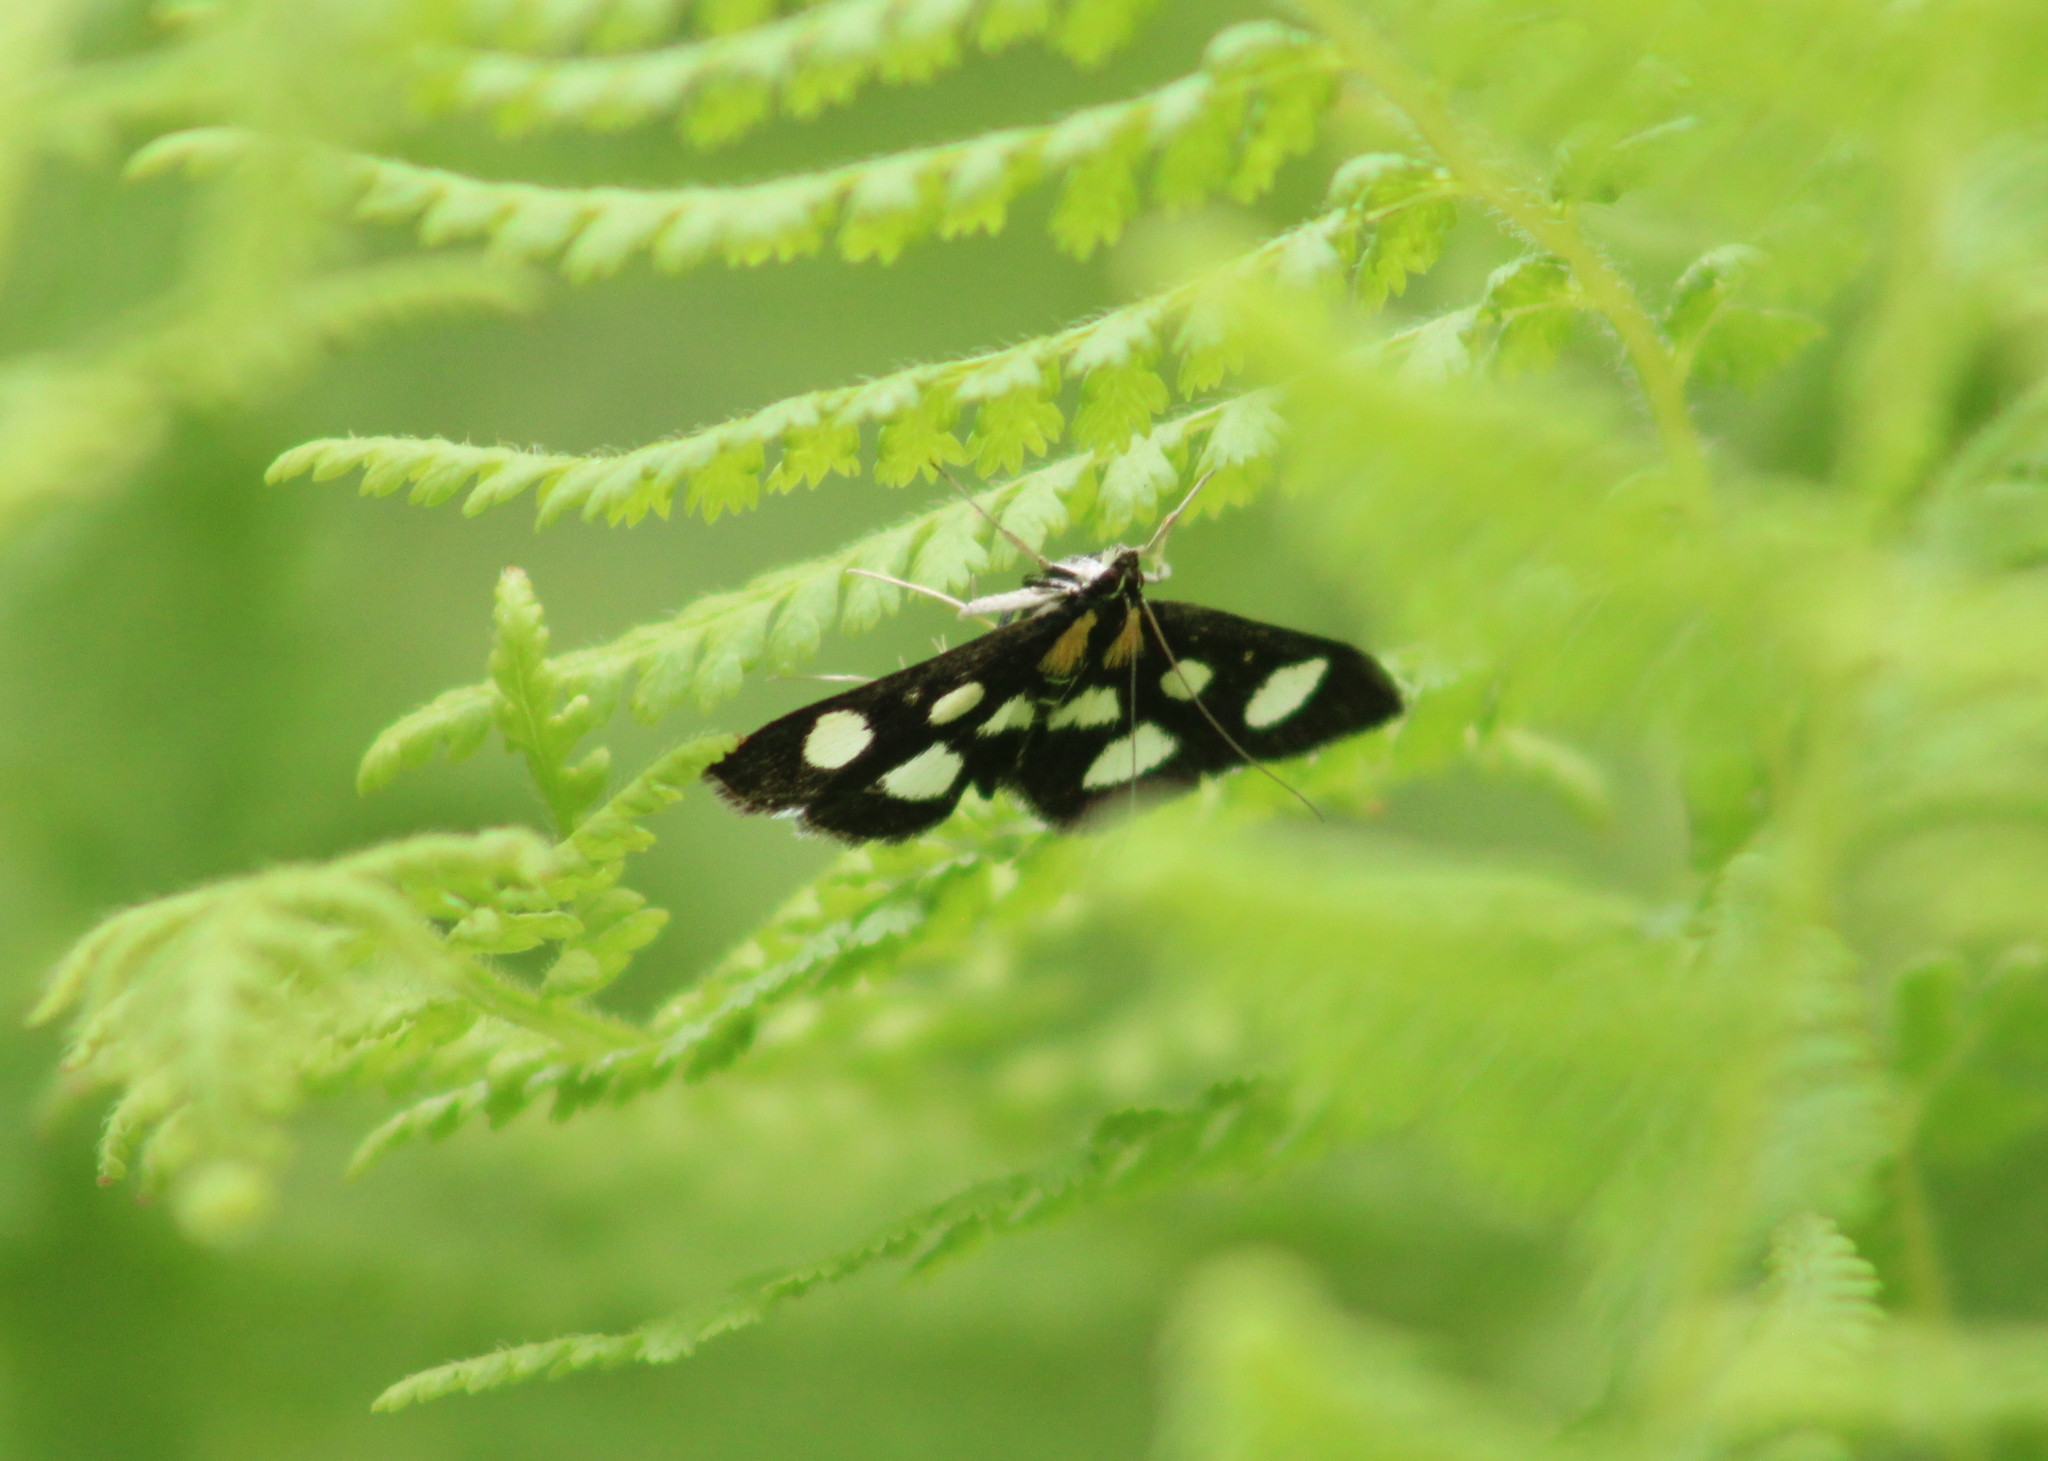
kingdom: Animalia
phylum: Arthropoda
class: Insecta
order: Lepidoptera
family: Crambidae
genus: Anania
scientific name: Anania funebris
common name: White-spotted sable moth
